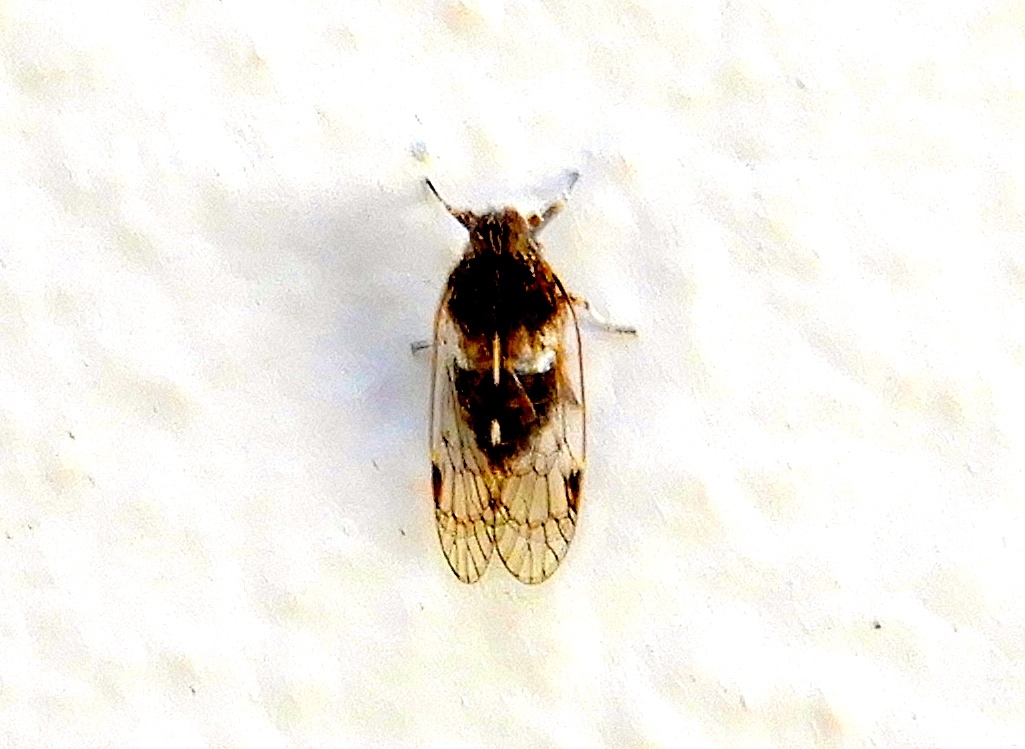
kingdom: Animalia
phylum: Arthropoda
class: Insecta
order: Hemiptera
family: Cixiidae
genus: Oecleus
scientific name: Oecleus
